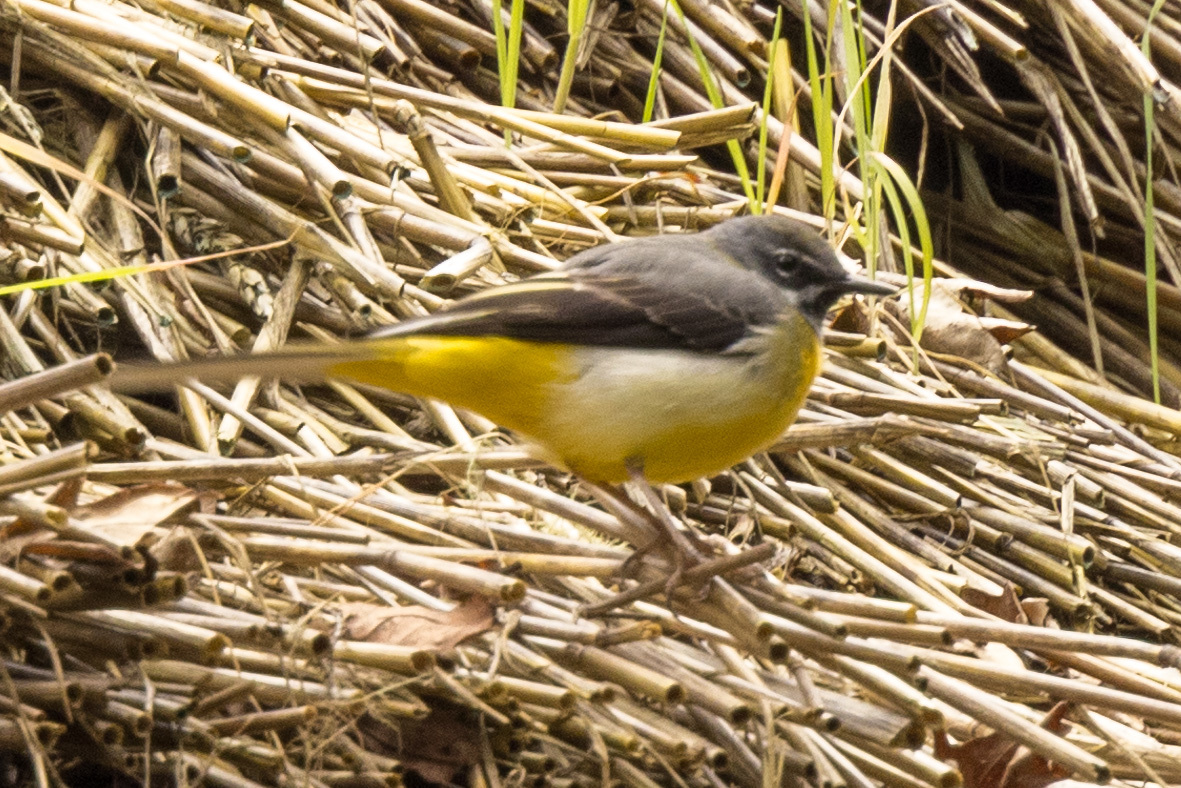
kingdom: Animalia
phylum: Chordata
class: Aves
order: Passeriformes
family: Motacillidae
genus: Motacilla
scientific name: Motacilla cinerea
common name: Grey wagtail
